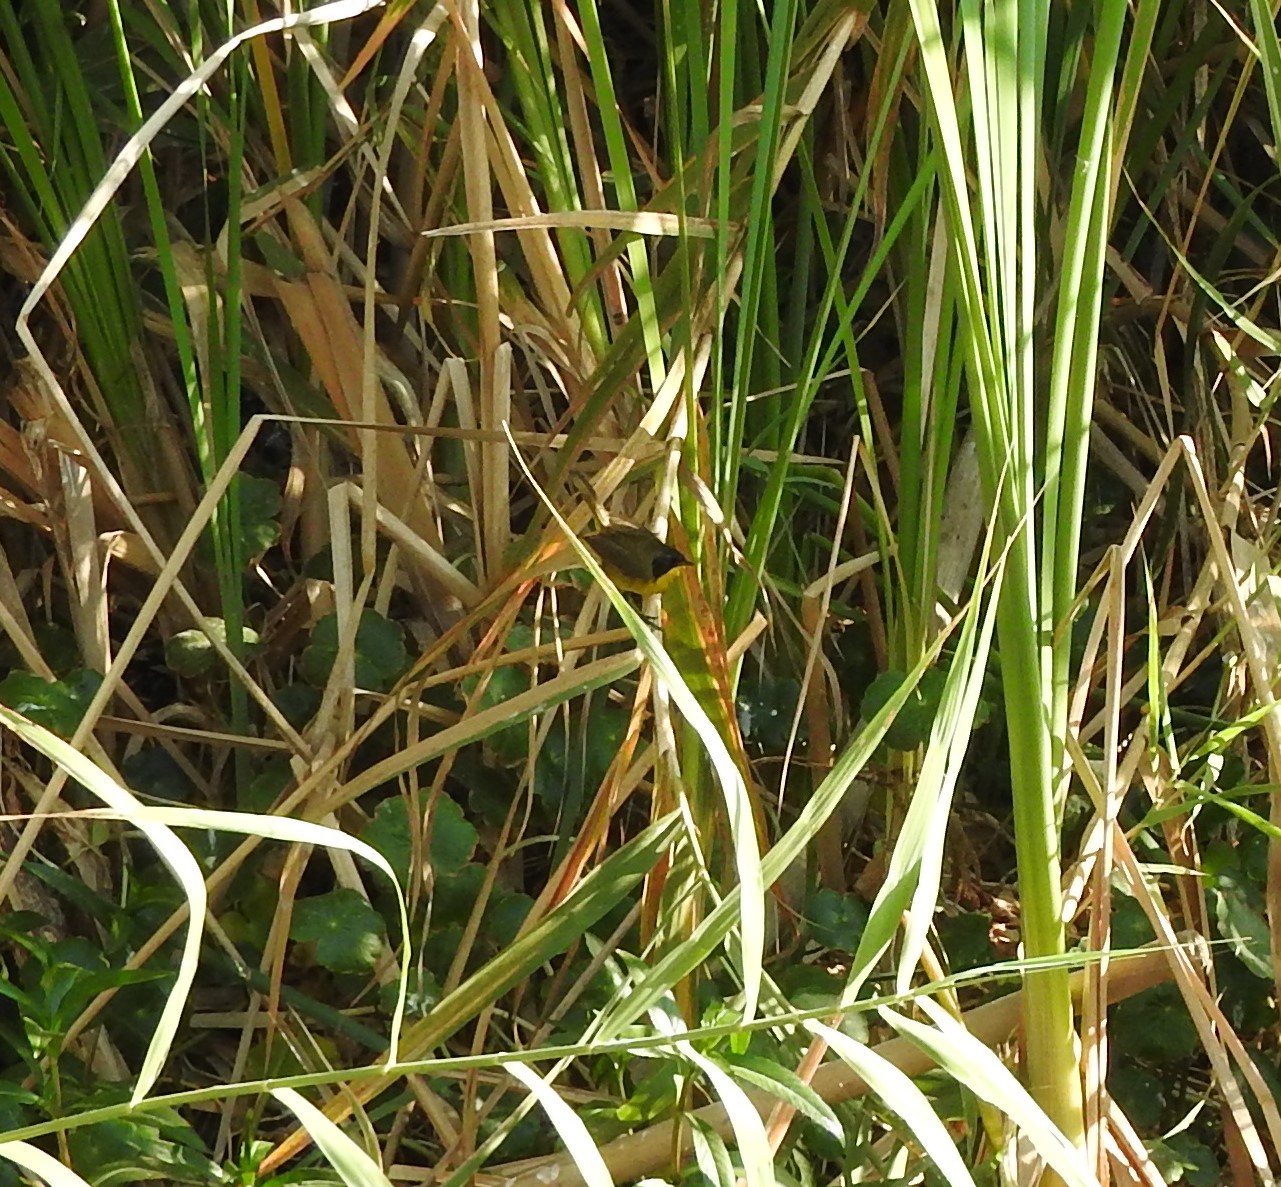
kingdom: Animalia
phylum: Chordata
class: Aves
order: Passeriformes
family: Parulidae
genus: Geothlypis
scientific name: Geothlypis speciosa
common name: Black-polled yellowthroat
